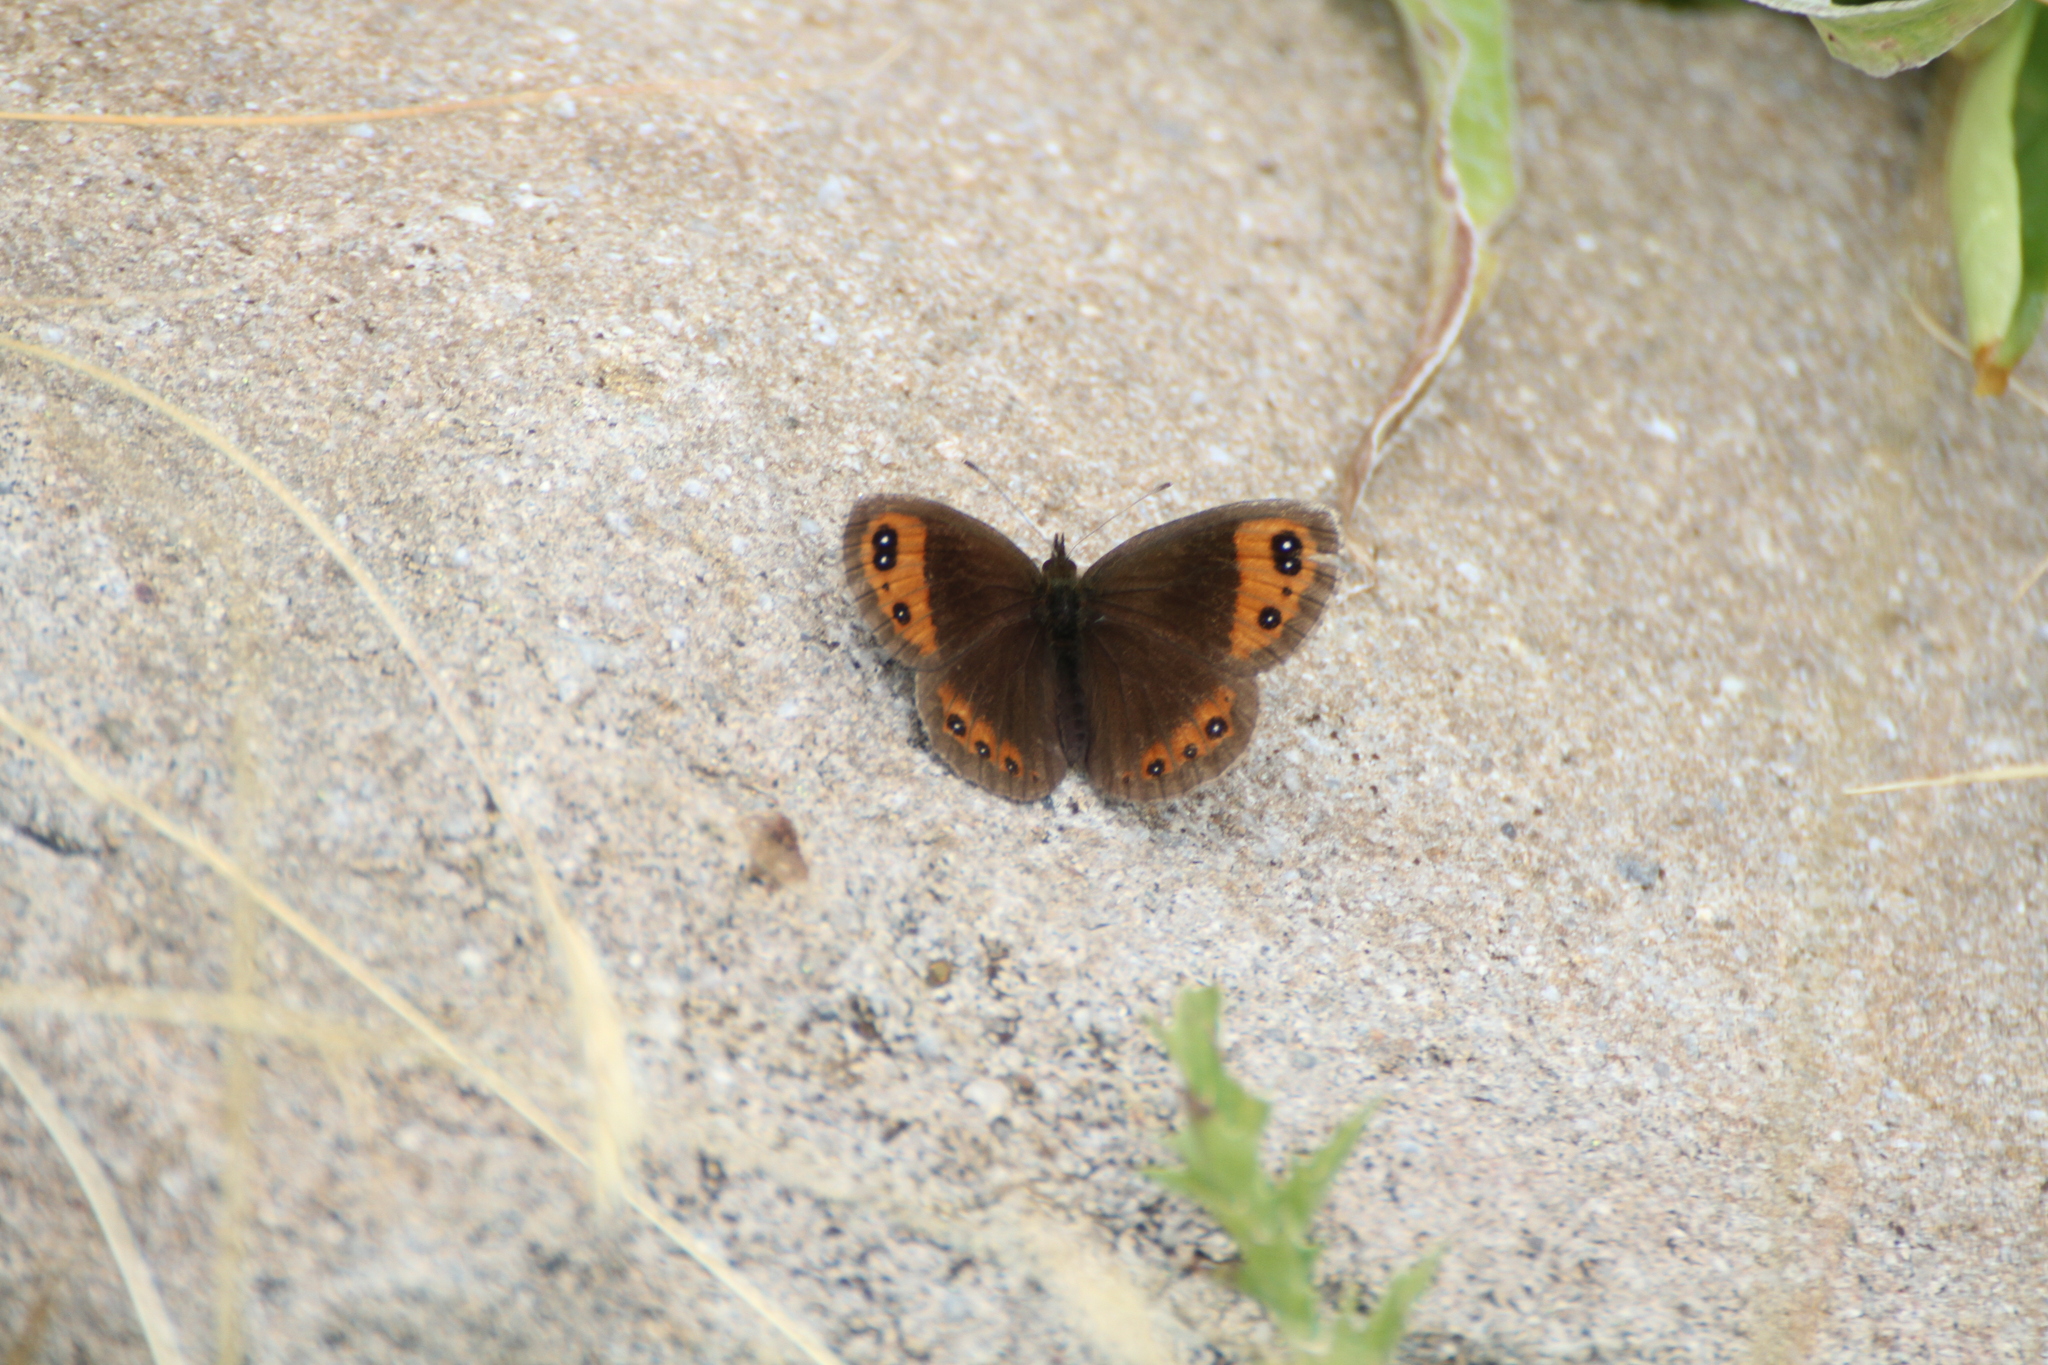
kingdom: Animalia
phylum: Arthropoda
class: Insecta
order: Lepidoptera
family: Nymphalidae
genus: Erebia
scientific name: Erebia neoridas
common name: Autumn ringlet
